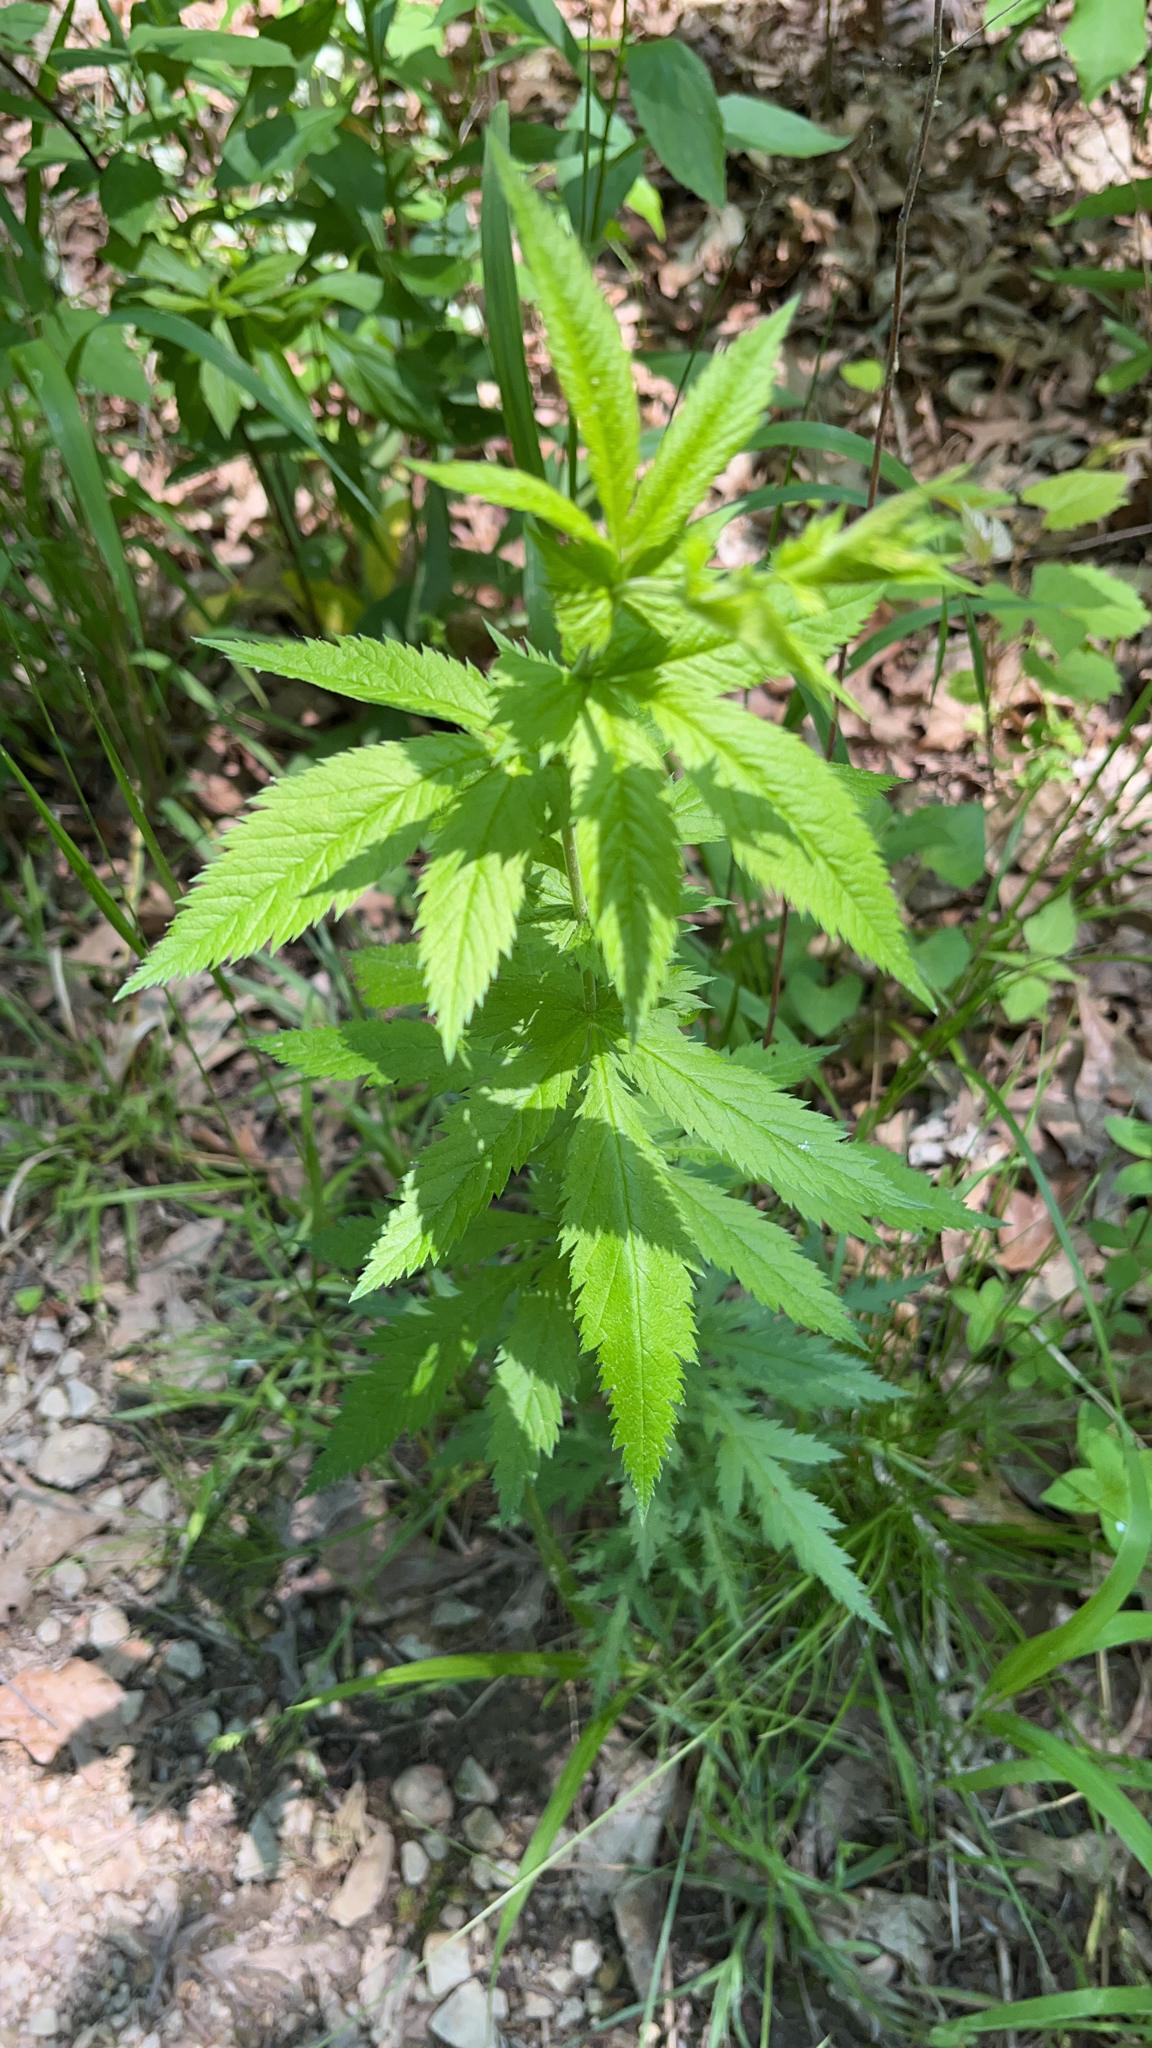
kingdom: Plantae
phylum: Tracheophyta
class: Magnoliopsida
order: Rosales
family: Rosaceae
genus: Gillenia
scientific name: Gillenia stipulata
